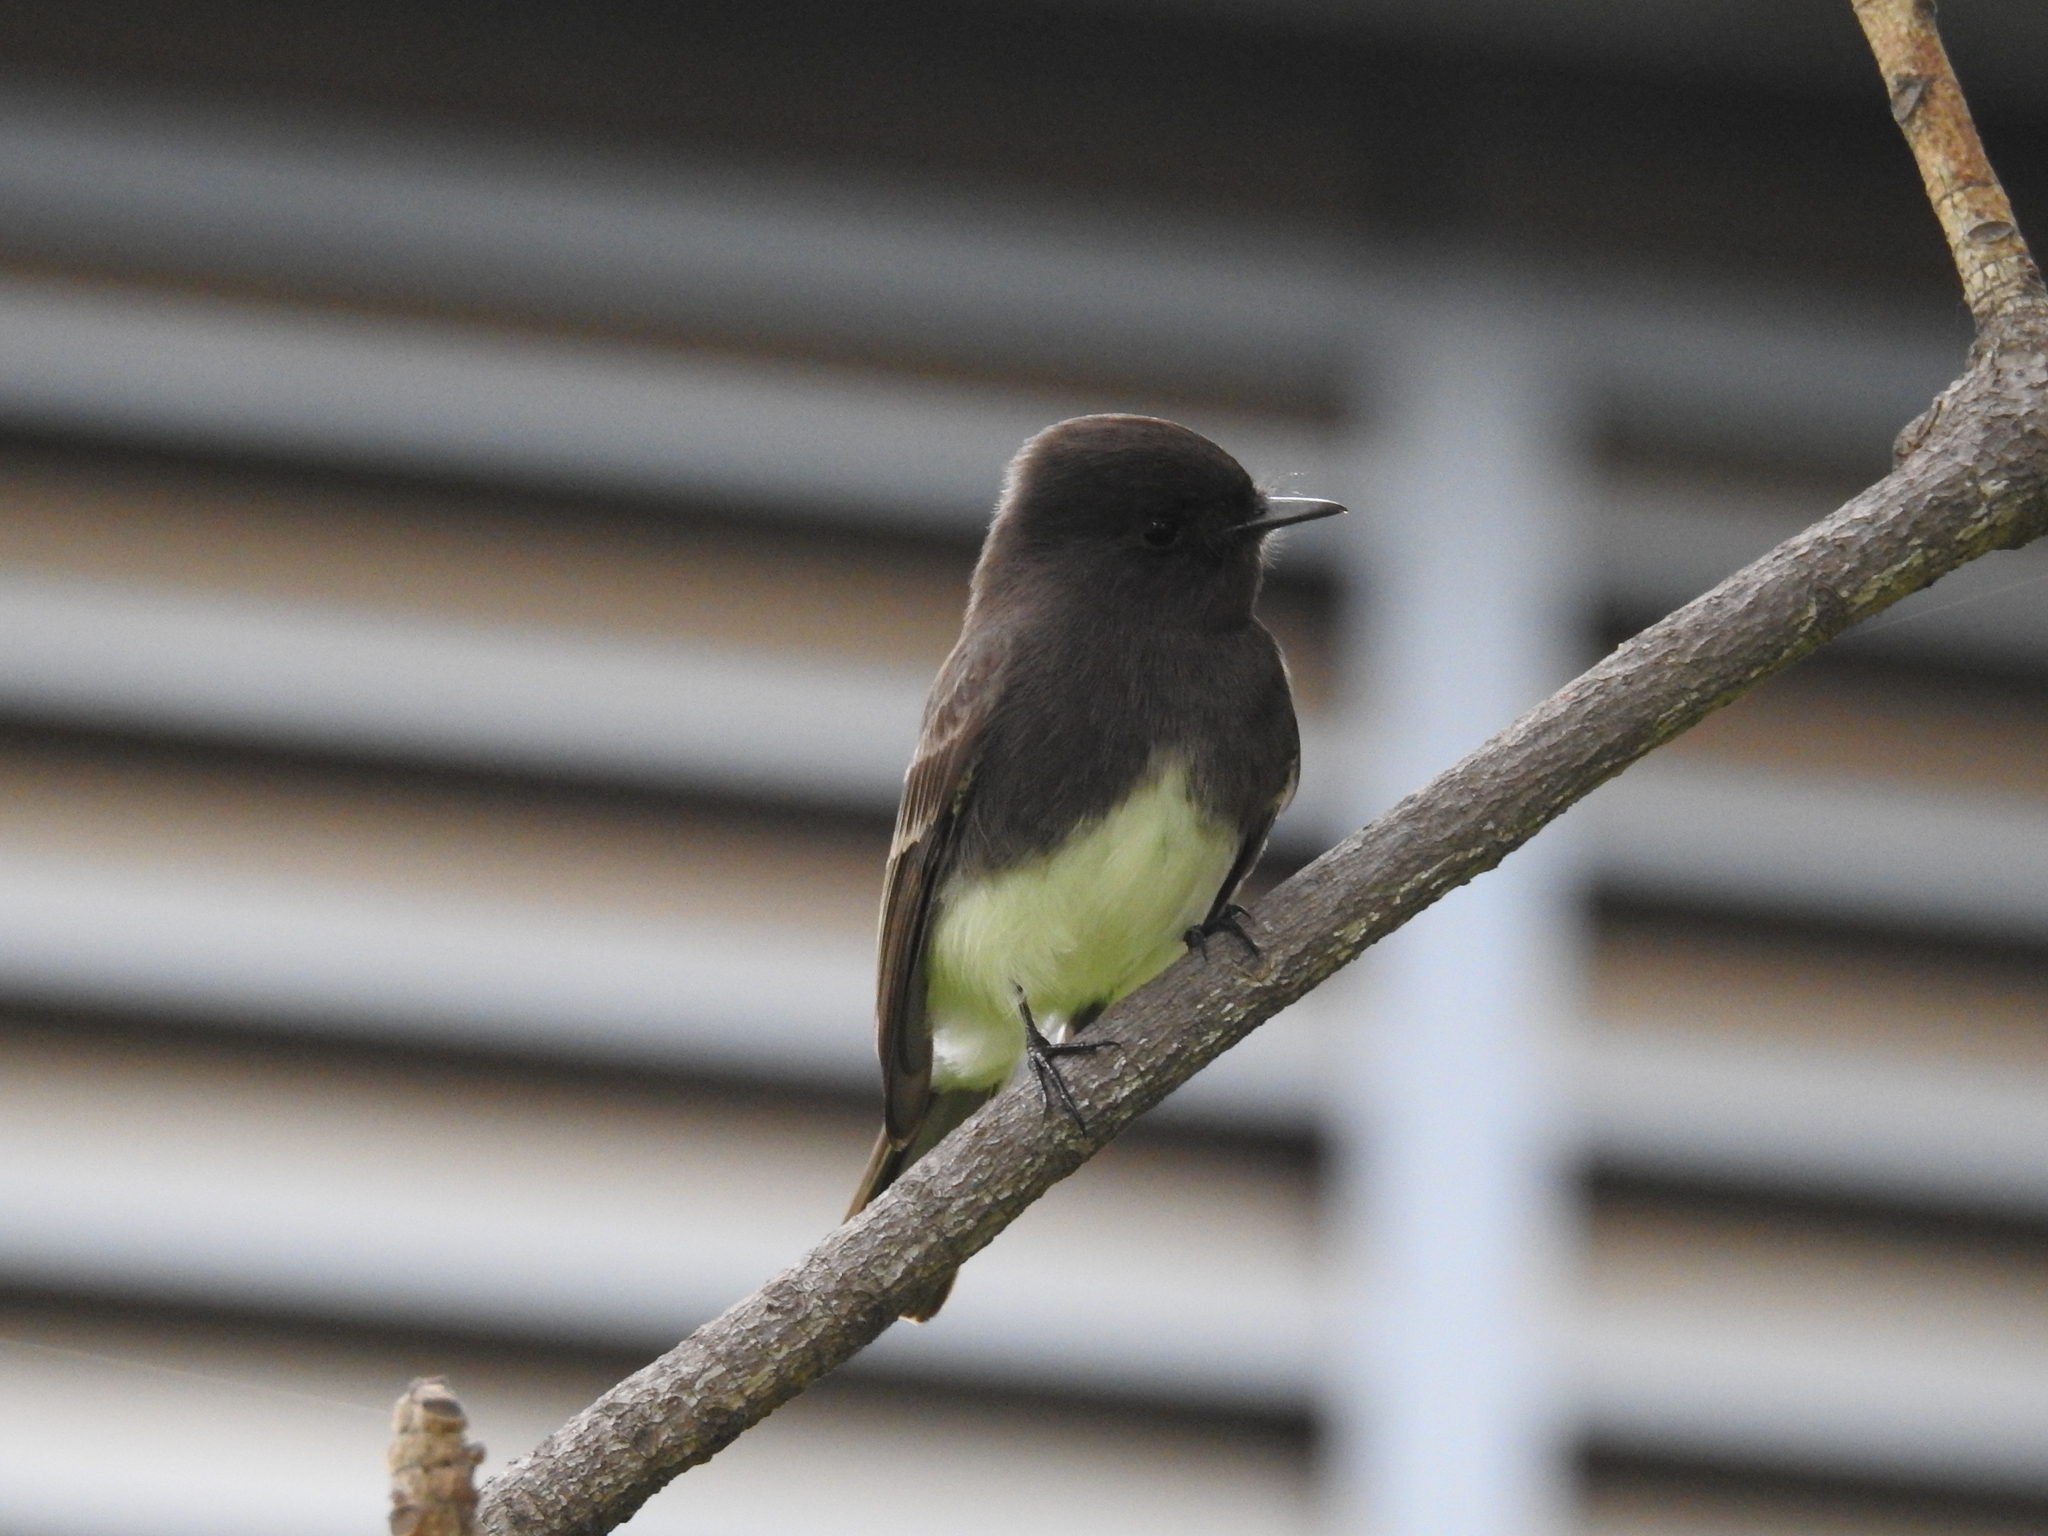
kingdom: Animalia
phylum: Chordata
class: Aves
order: Passeriformes
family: Tyrannidae
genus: Sayornis
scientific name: Sayornis nigricans
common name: Black phoebe
